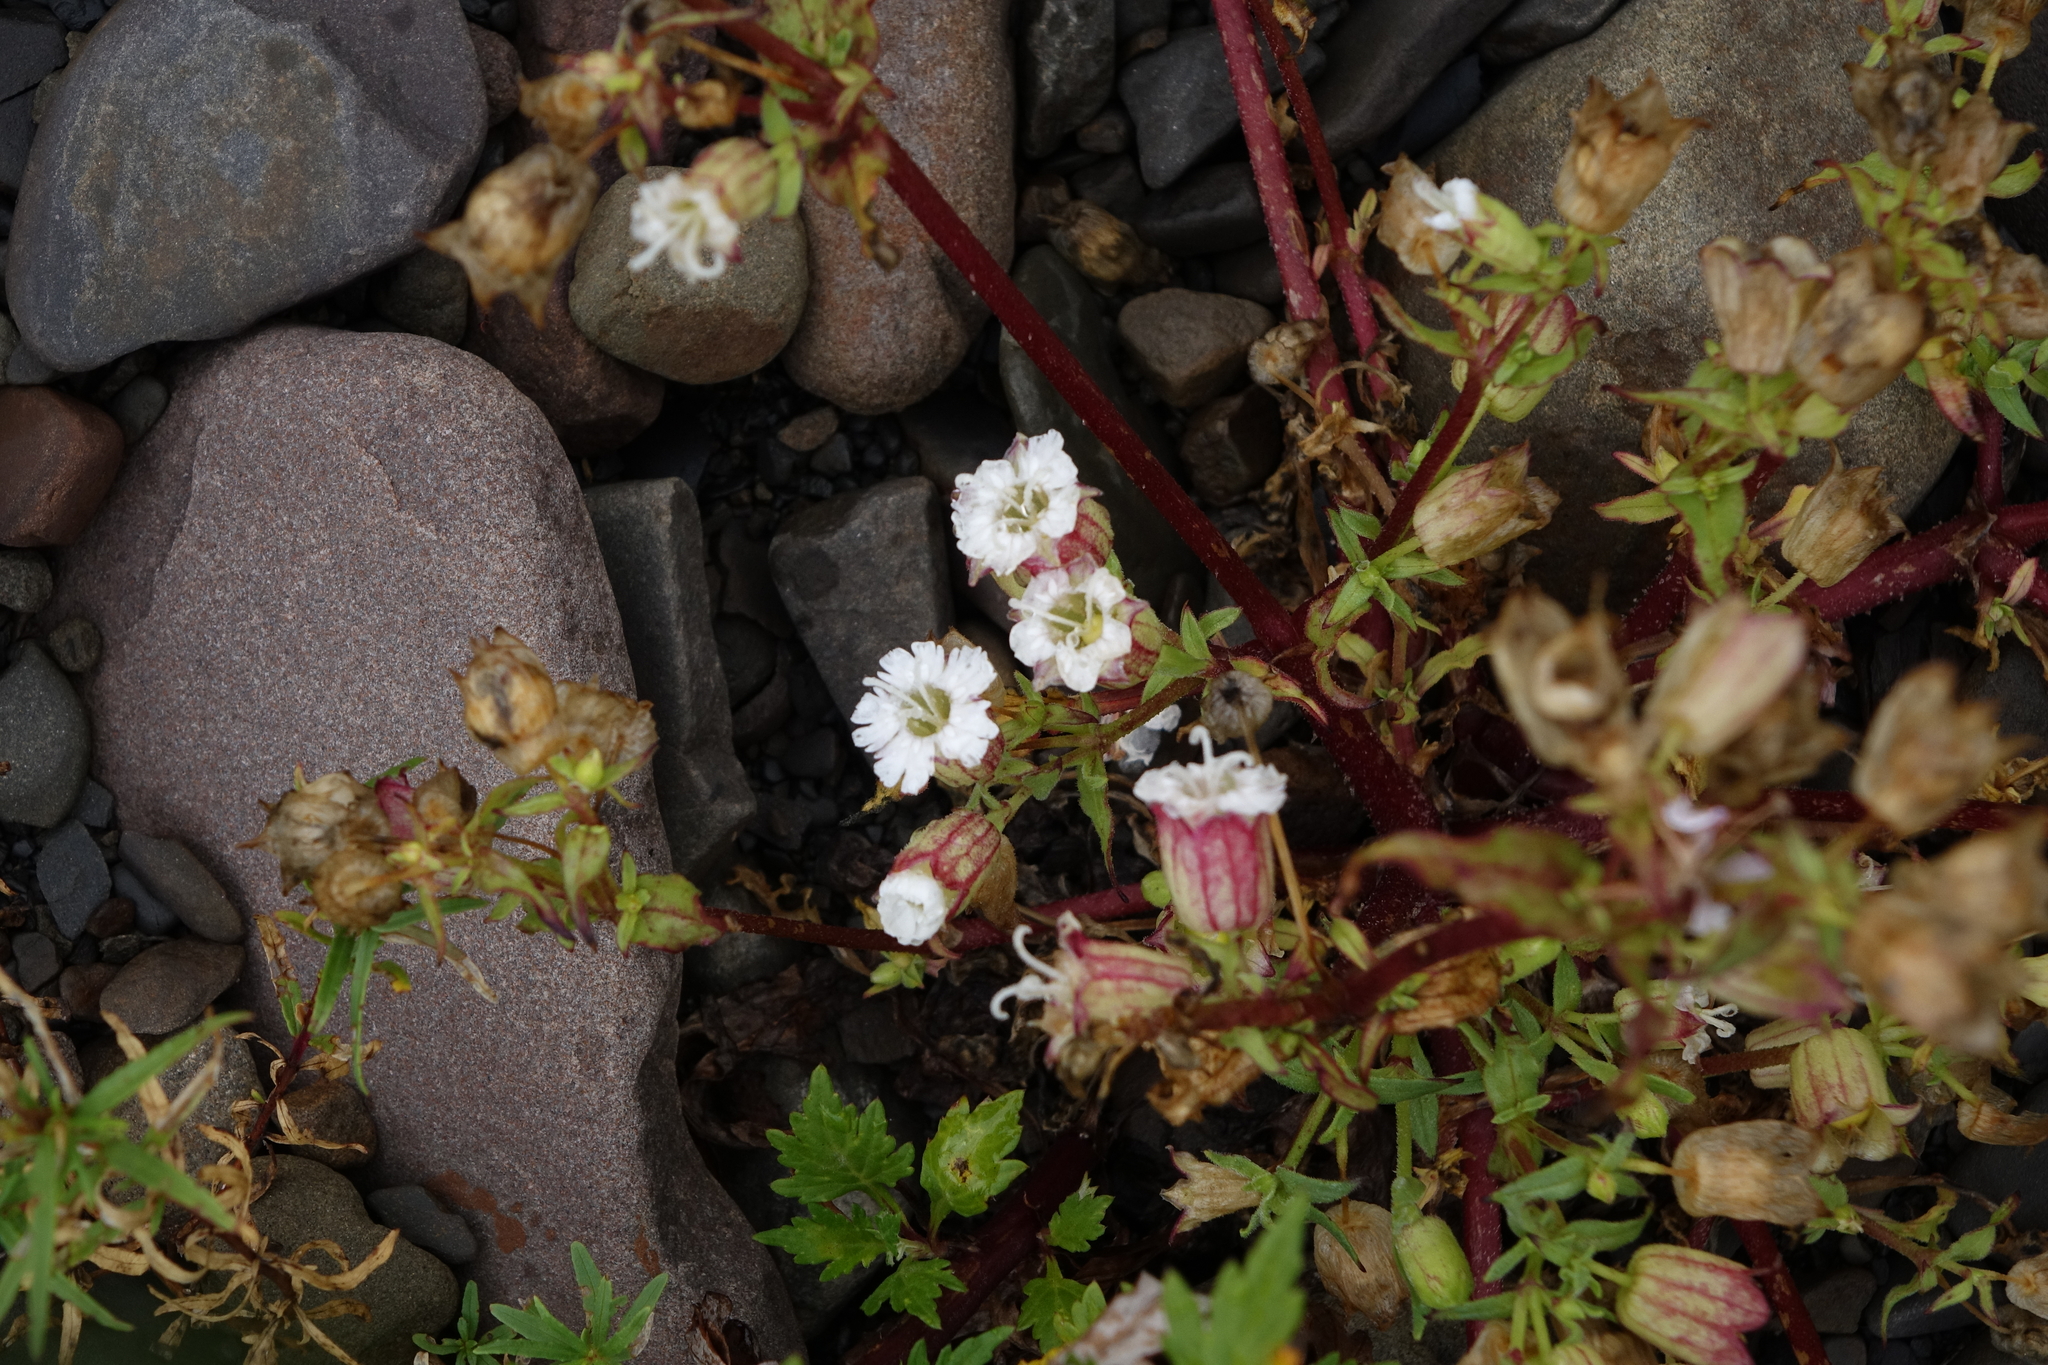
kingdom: Plantae
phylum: Tracheophyta
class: Magnoliopsida
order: Caryophyllales
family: Caryophyllaceae
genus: Silene
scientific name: Silene lacera
